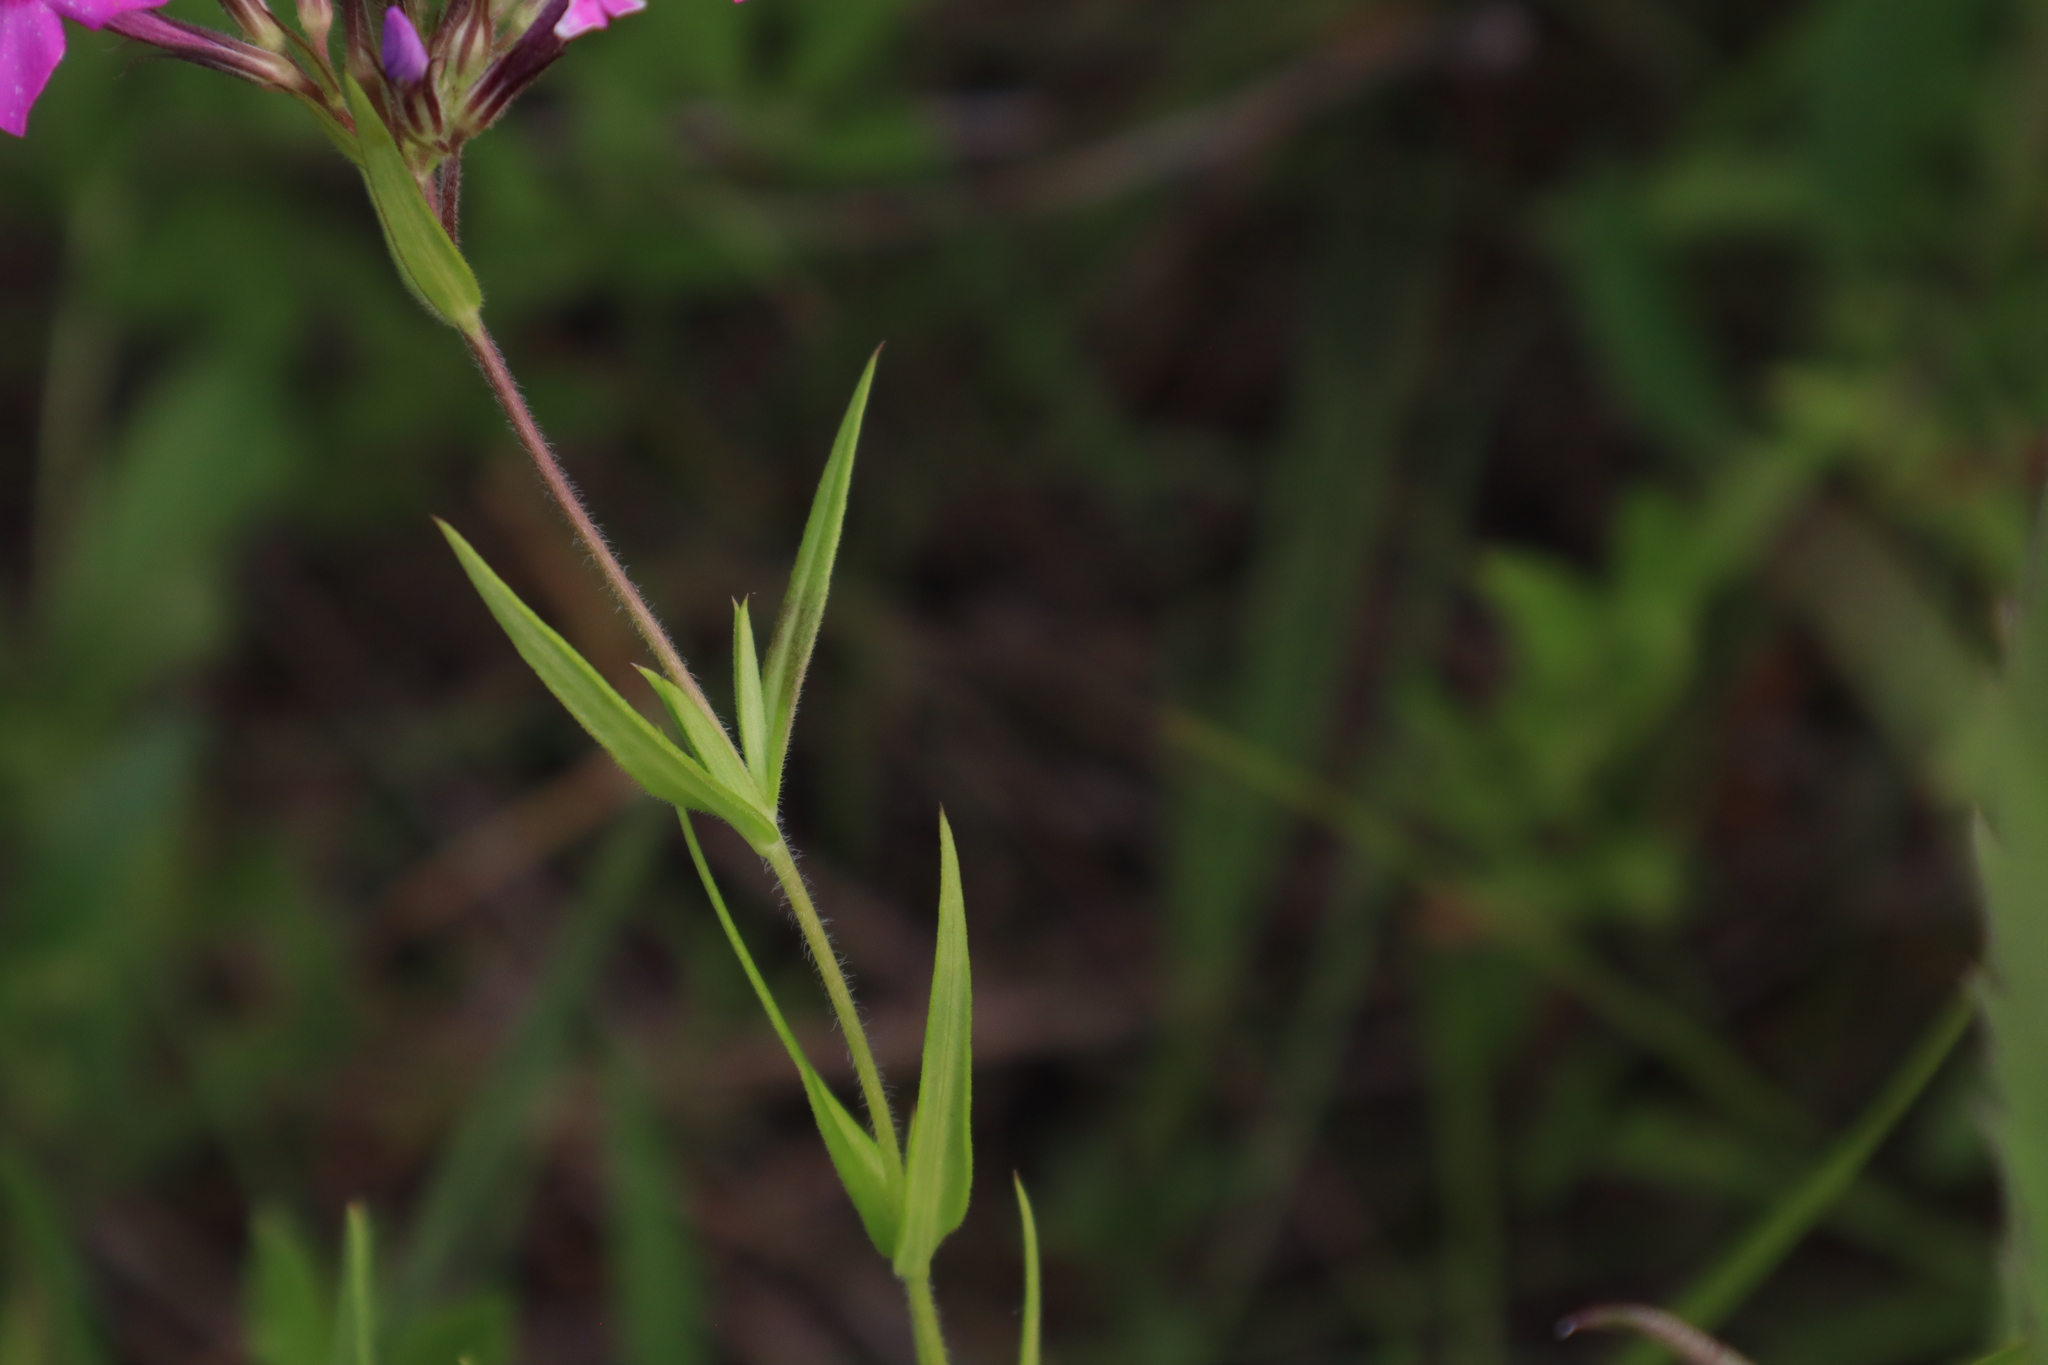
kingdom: Plantae
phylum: Tracheophyta
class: Magnoliopsida
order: Ericales
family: Polemoniaceae
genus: Phlox
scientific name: Phlox pilosa
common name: Prairie phlox
